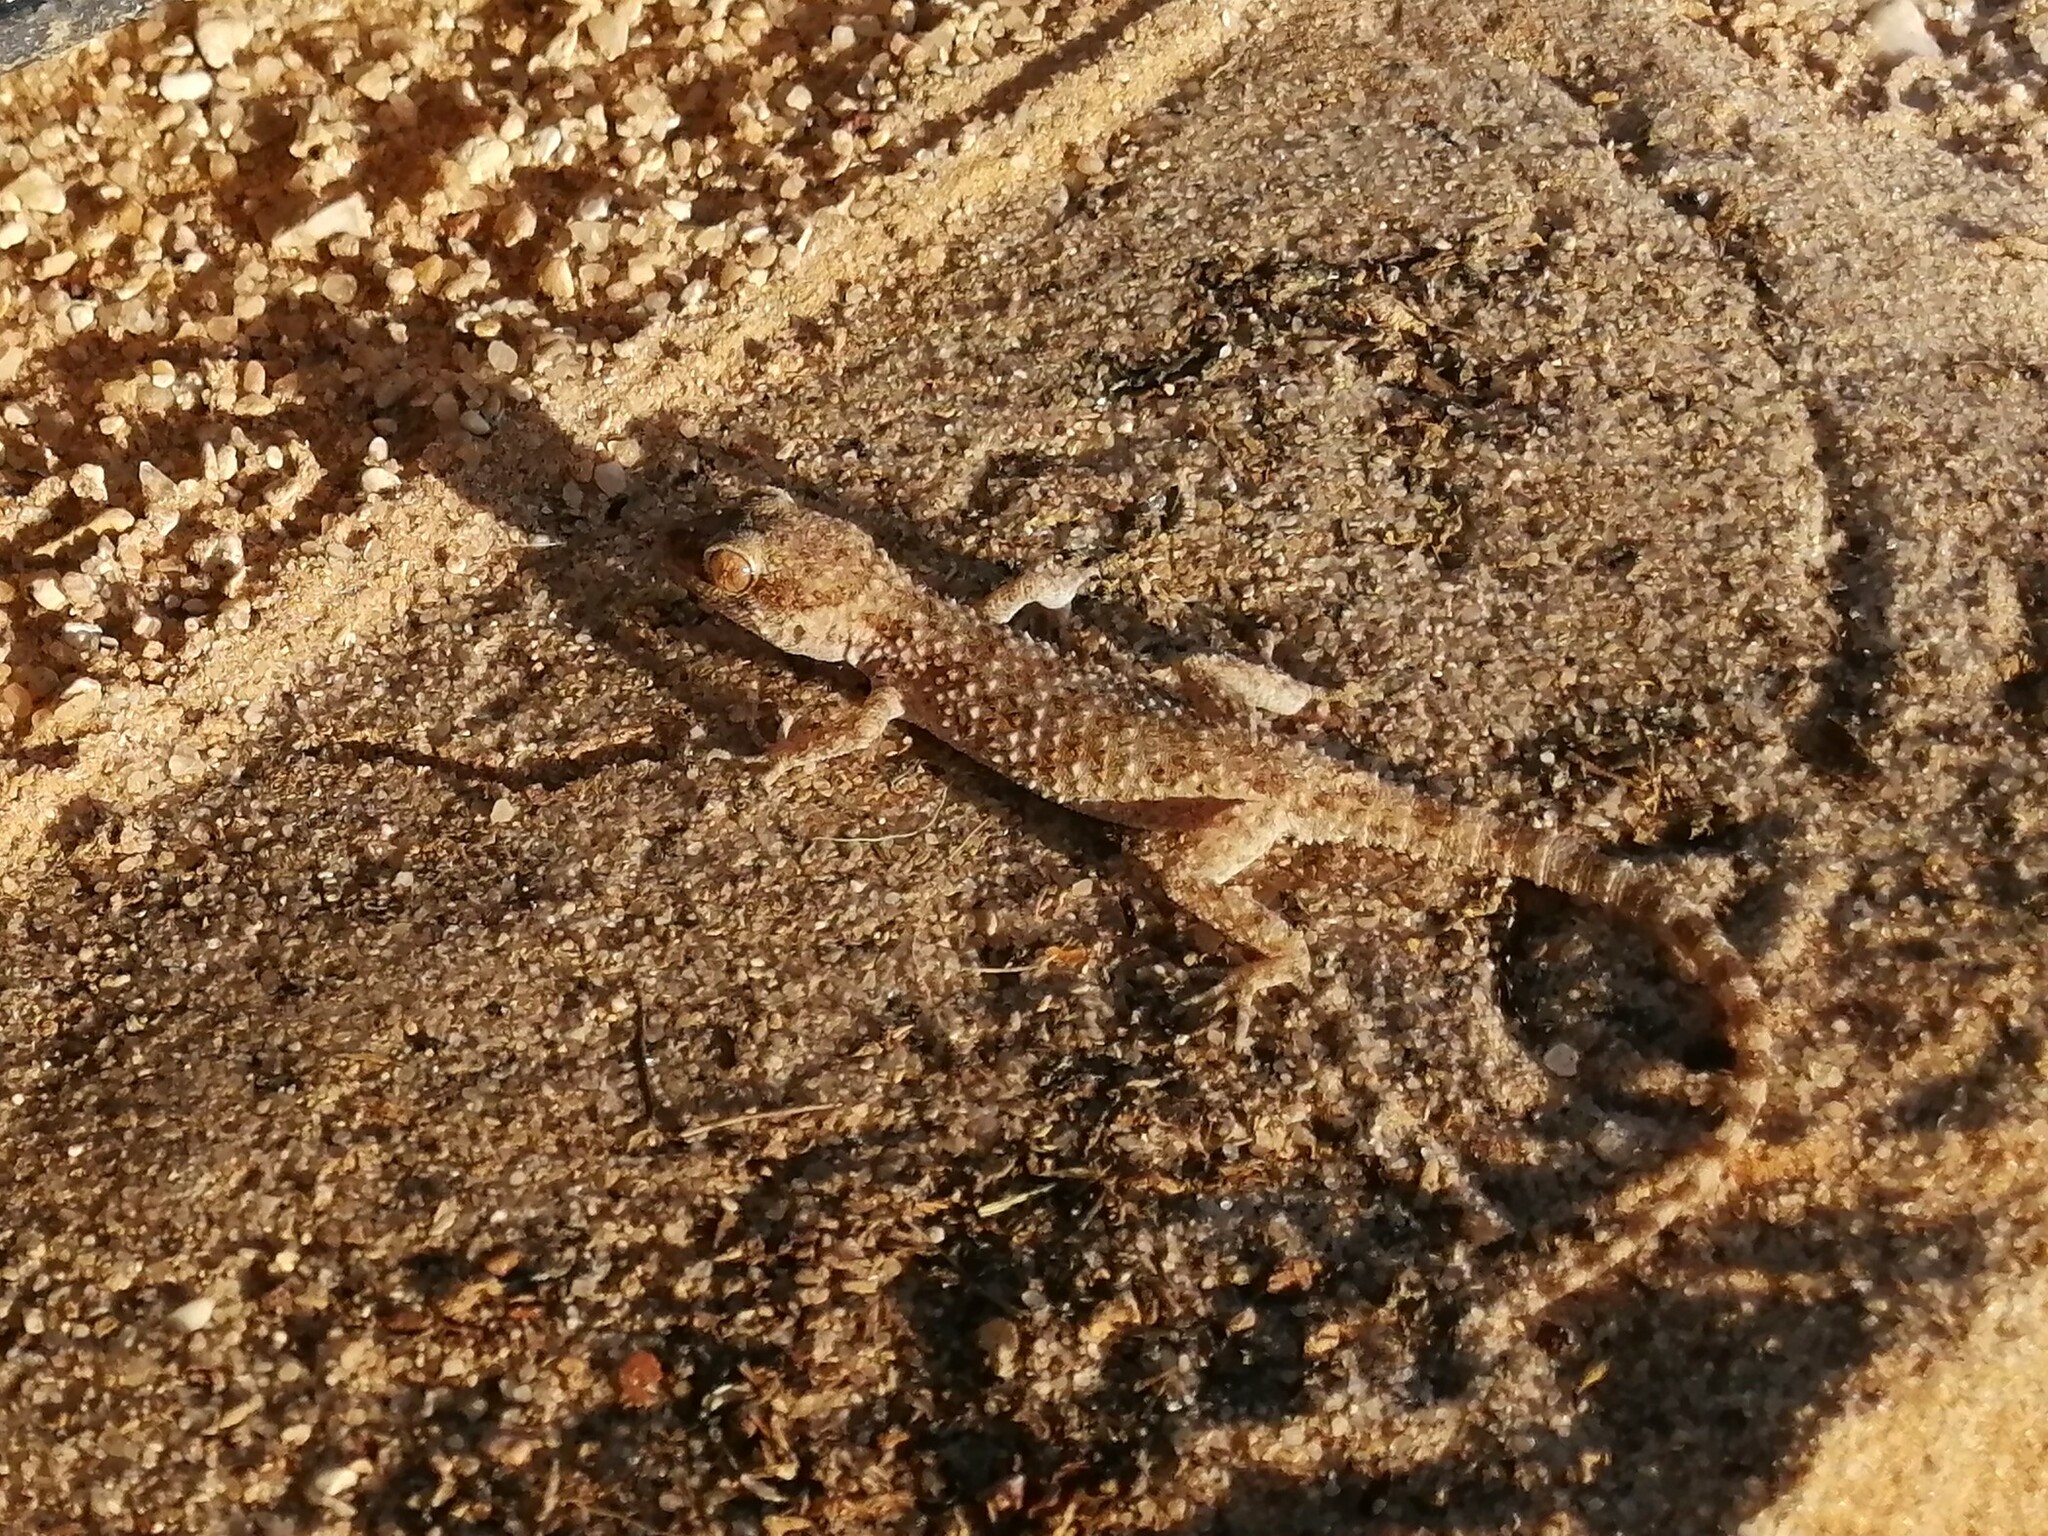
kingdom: Animalia
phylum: Chordata
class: Squamata
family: Gekkonidae
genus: Bunopus
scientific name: Bunopus tuberculatus
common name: Southern tuberculated gecko
